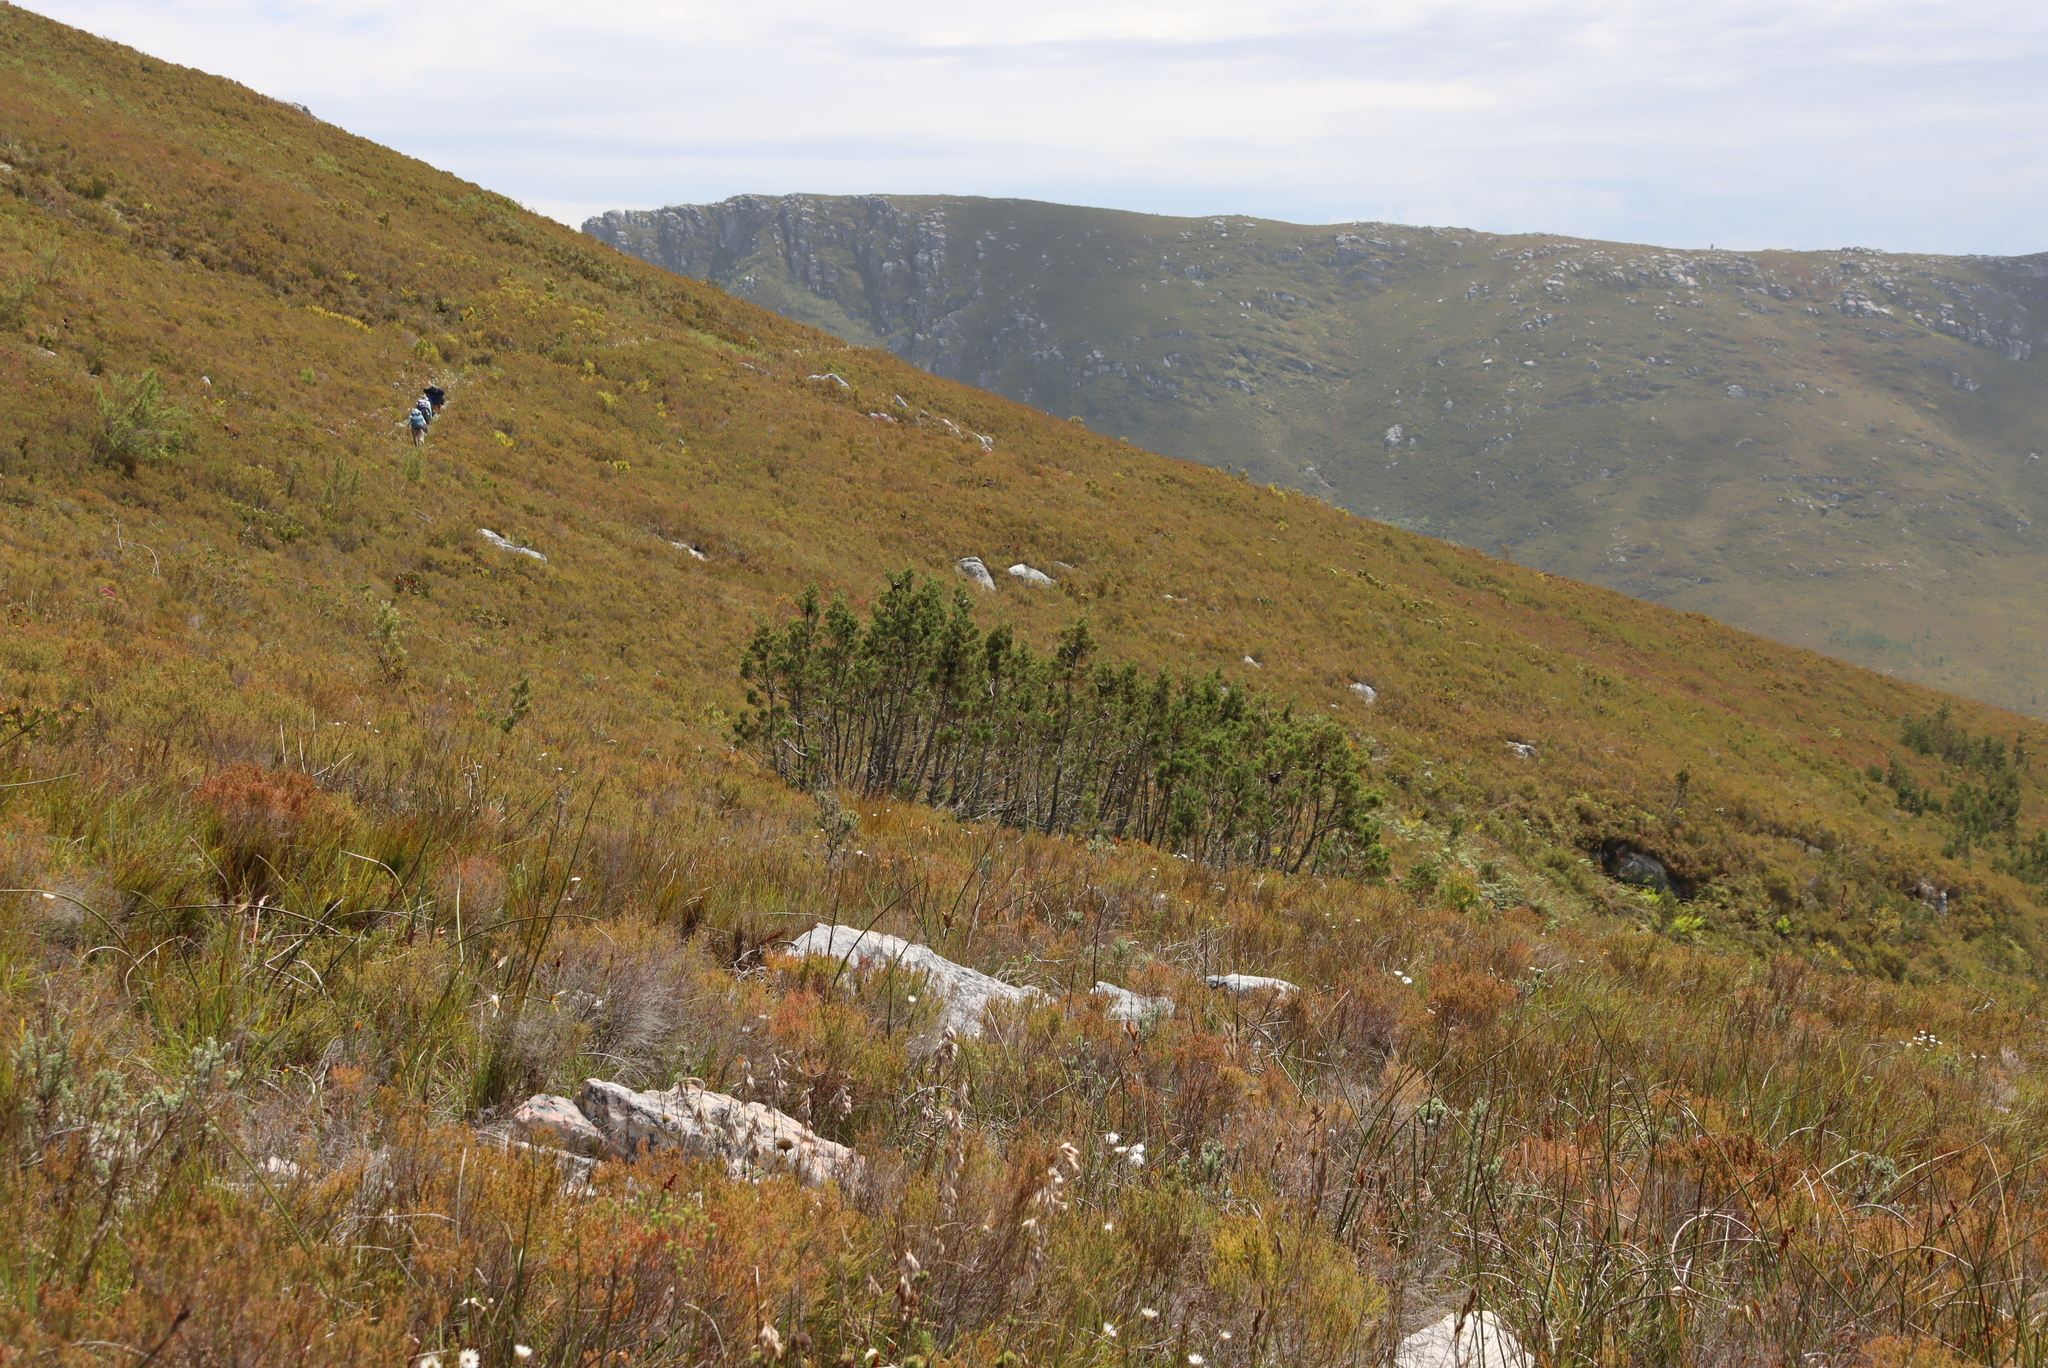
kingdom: Plantae
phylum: Tracheophyta
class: Pinopsida
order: Pinales
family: Cupressaceae
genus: Widdringtonia
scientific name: Widdringtonia nodiflora
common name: Cape cypress
